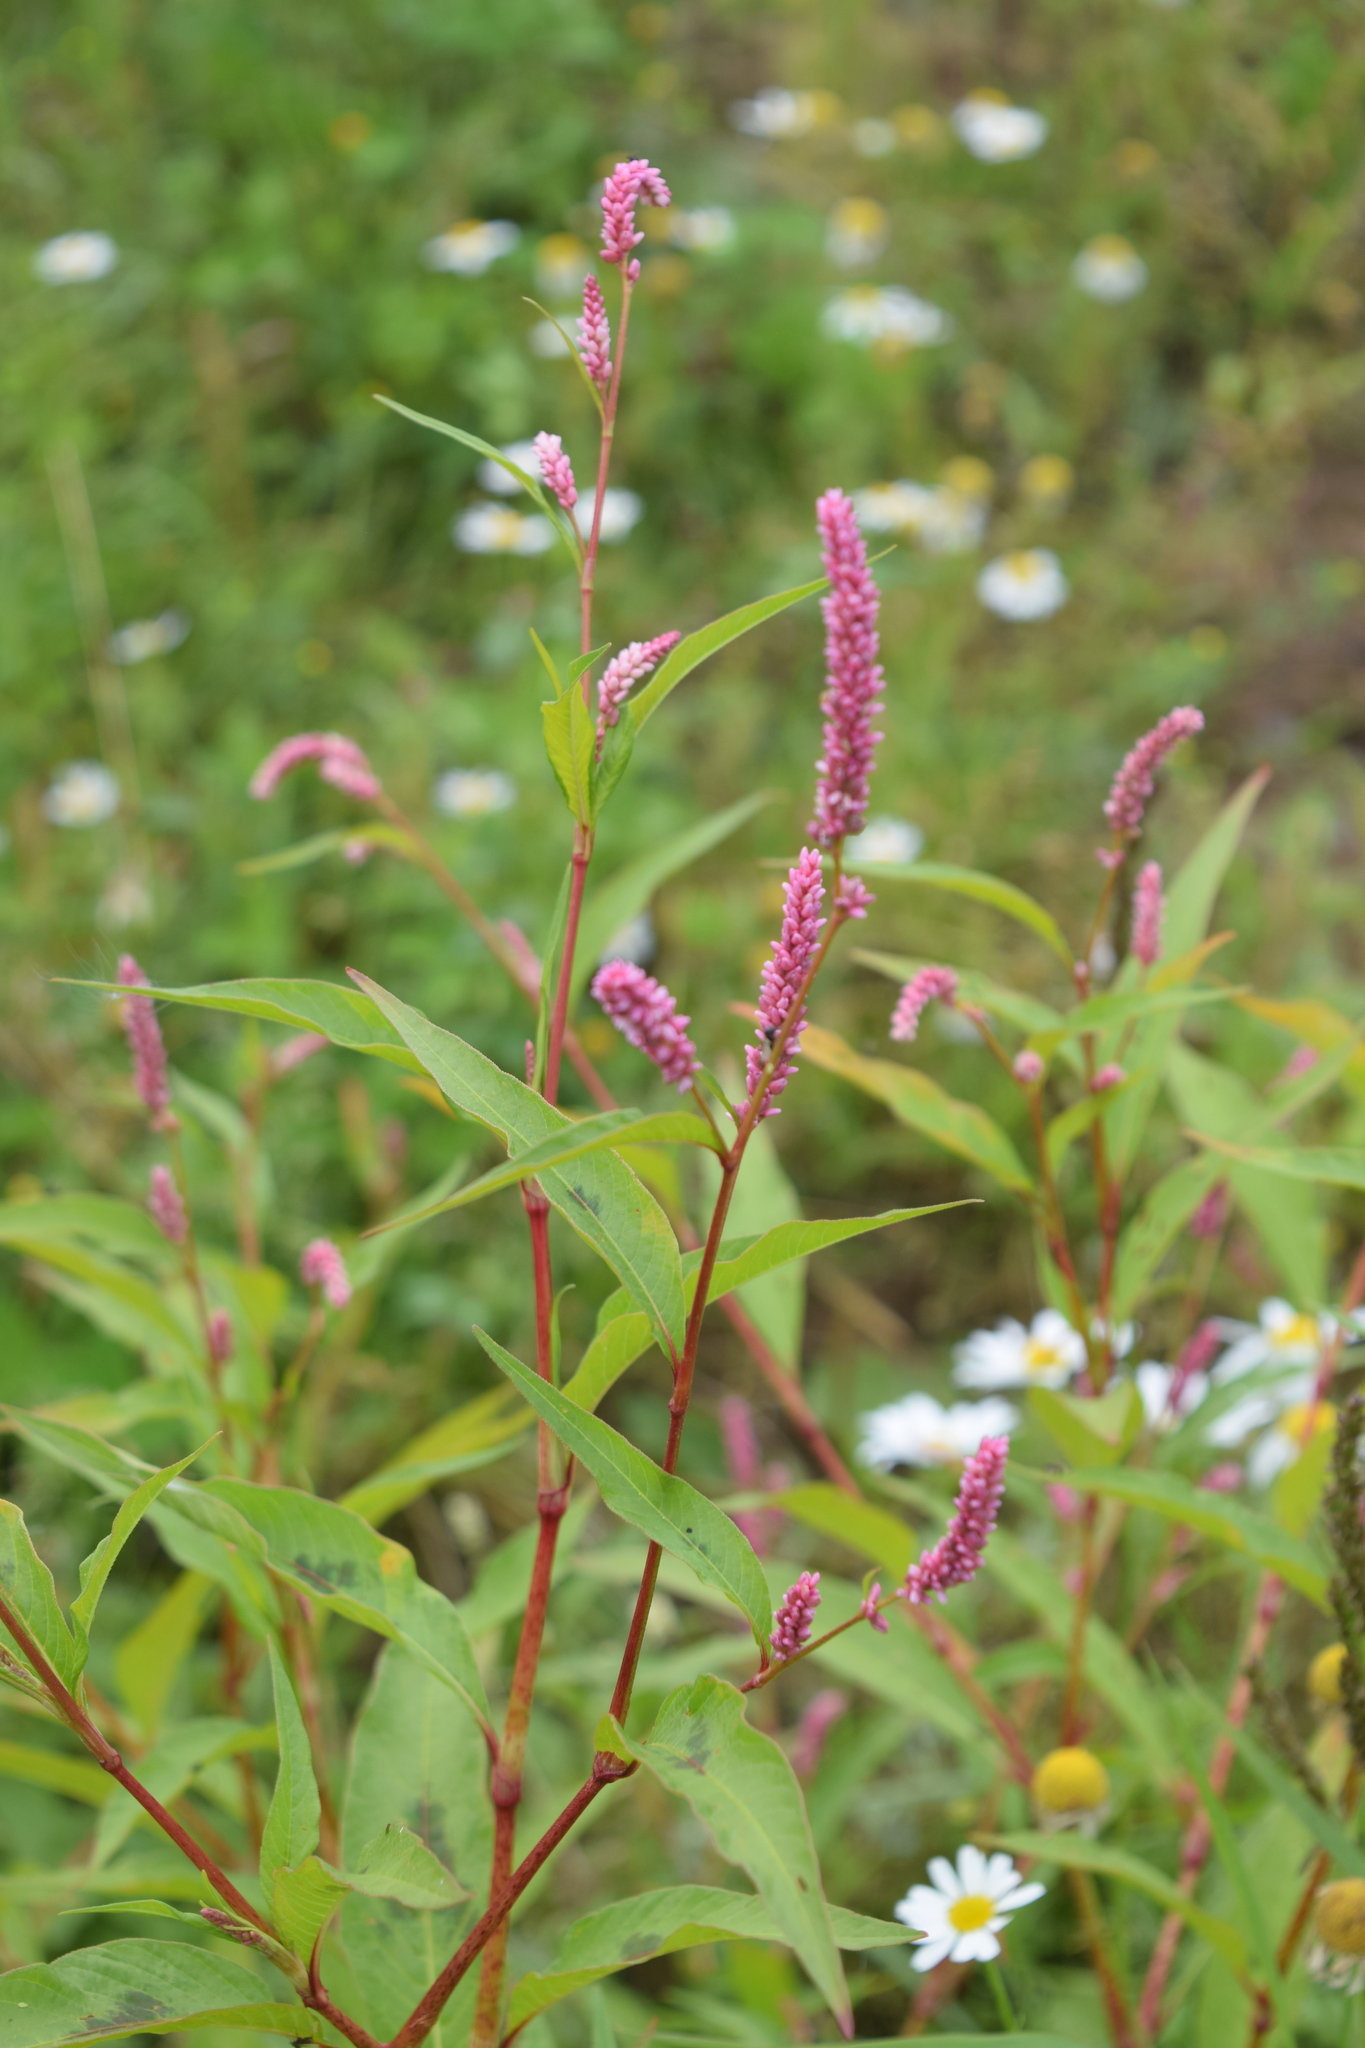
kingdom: Plantae
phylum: Tracheophyta
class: Magnoliopsida
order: Caryophyllales
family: Polygonaceae
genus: Persicaria
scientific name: Persicaria lapathifolia
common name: Curlytop knotweed
